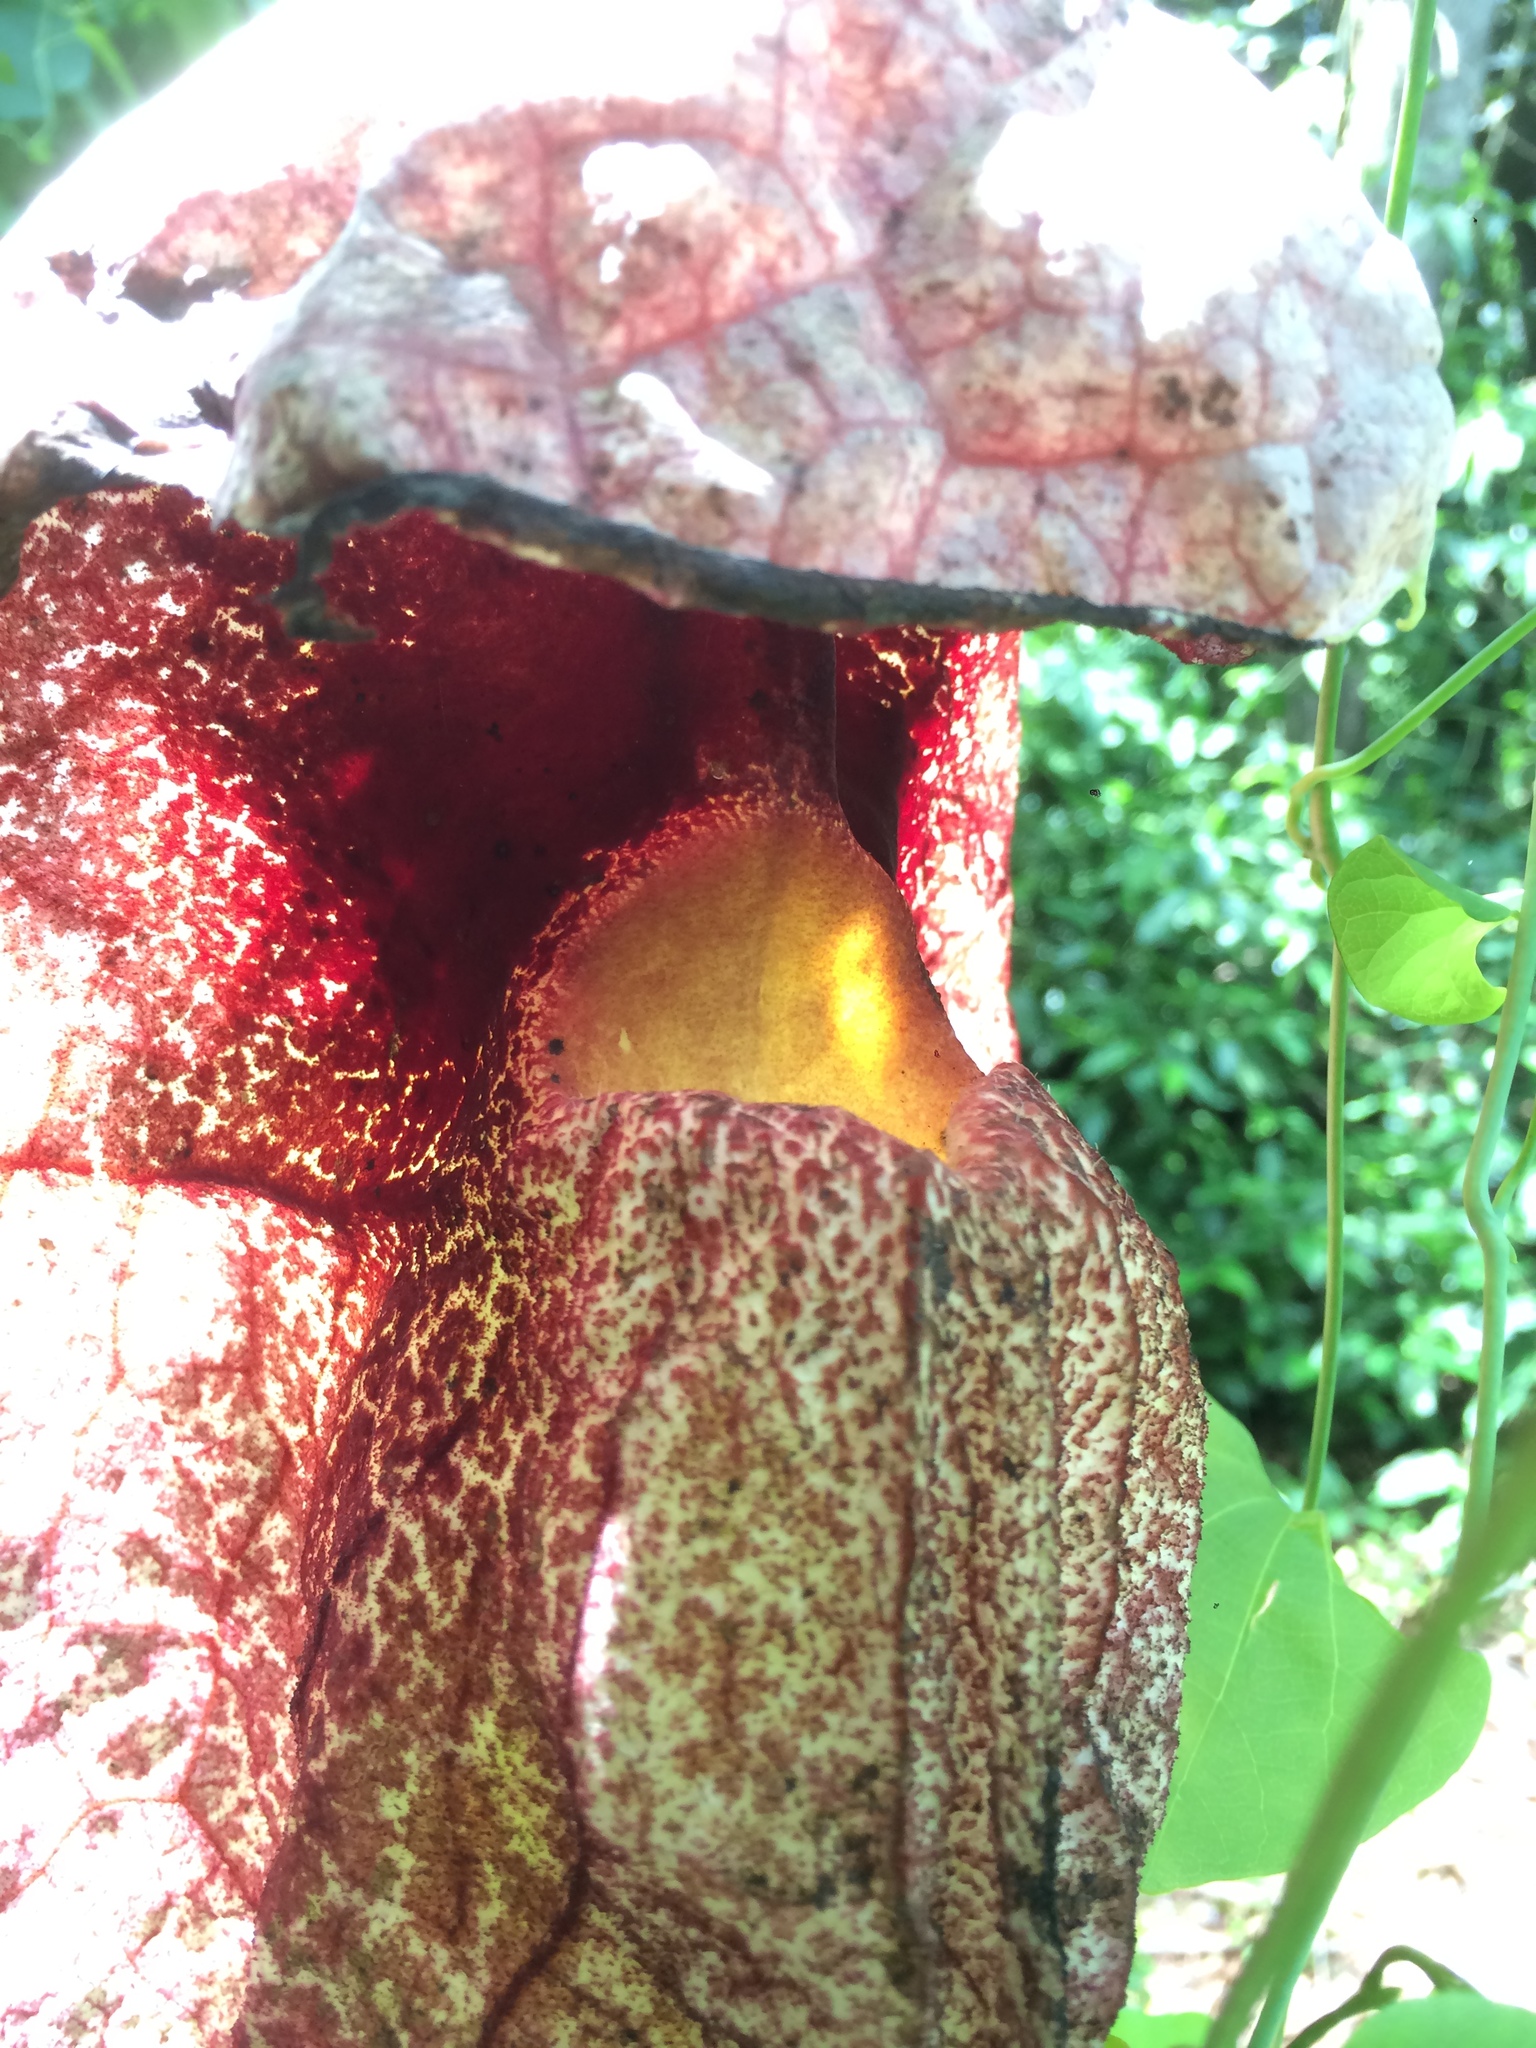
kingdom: Plantae
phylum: Tracheophyta
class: Magnoliopsida
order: Piperales
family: Aristolochiaceae
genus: Aristolochia
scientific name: Aristolochia gigantea
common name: Duckflower
